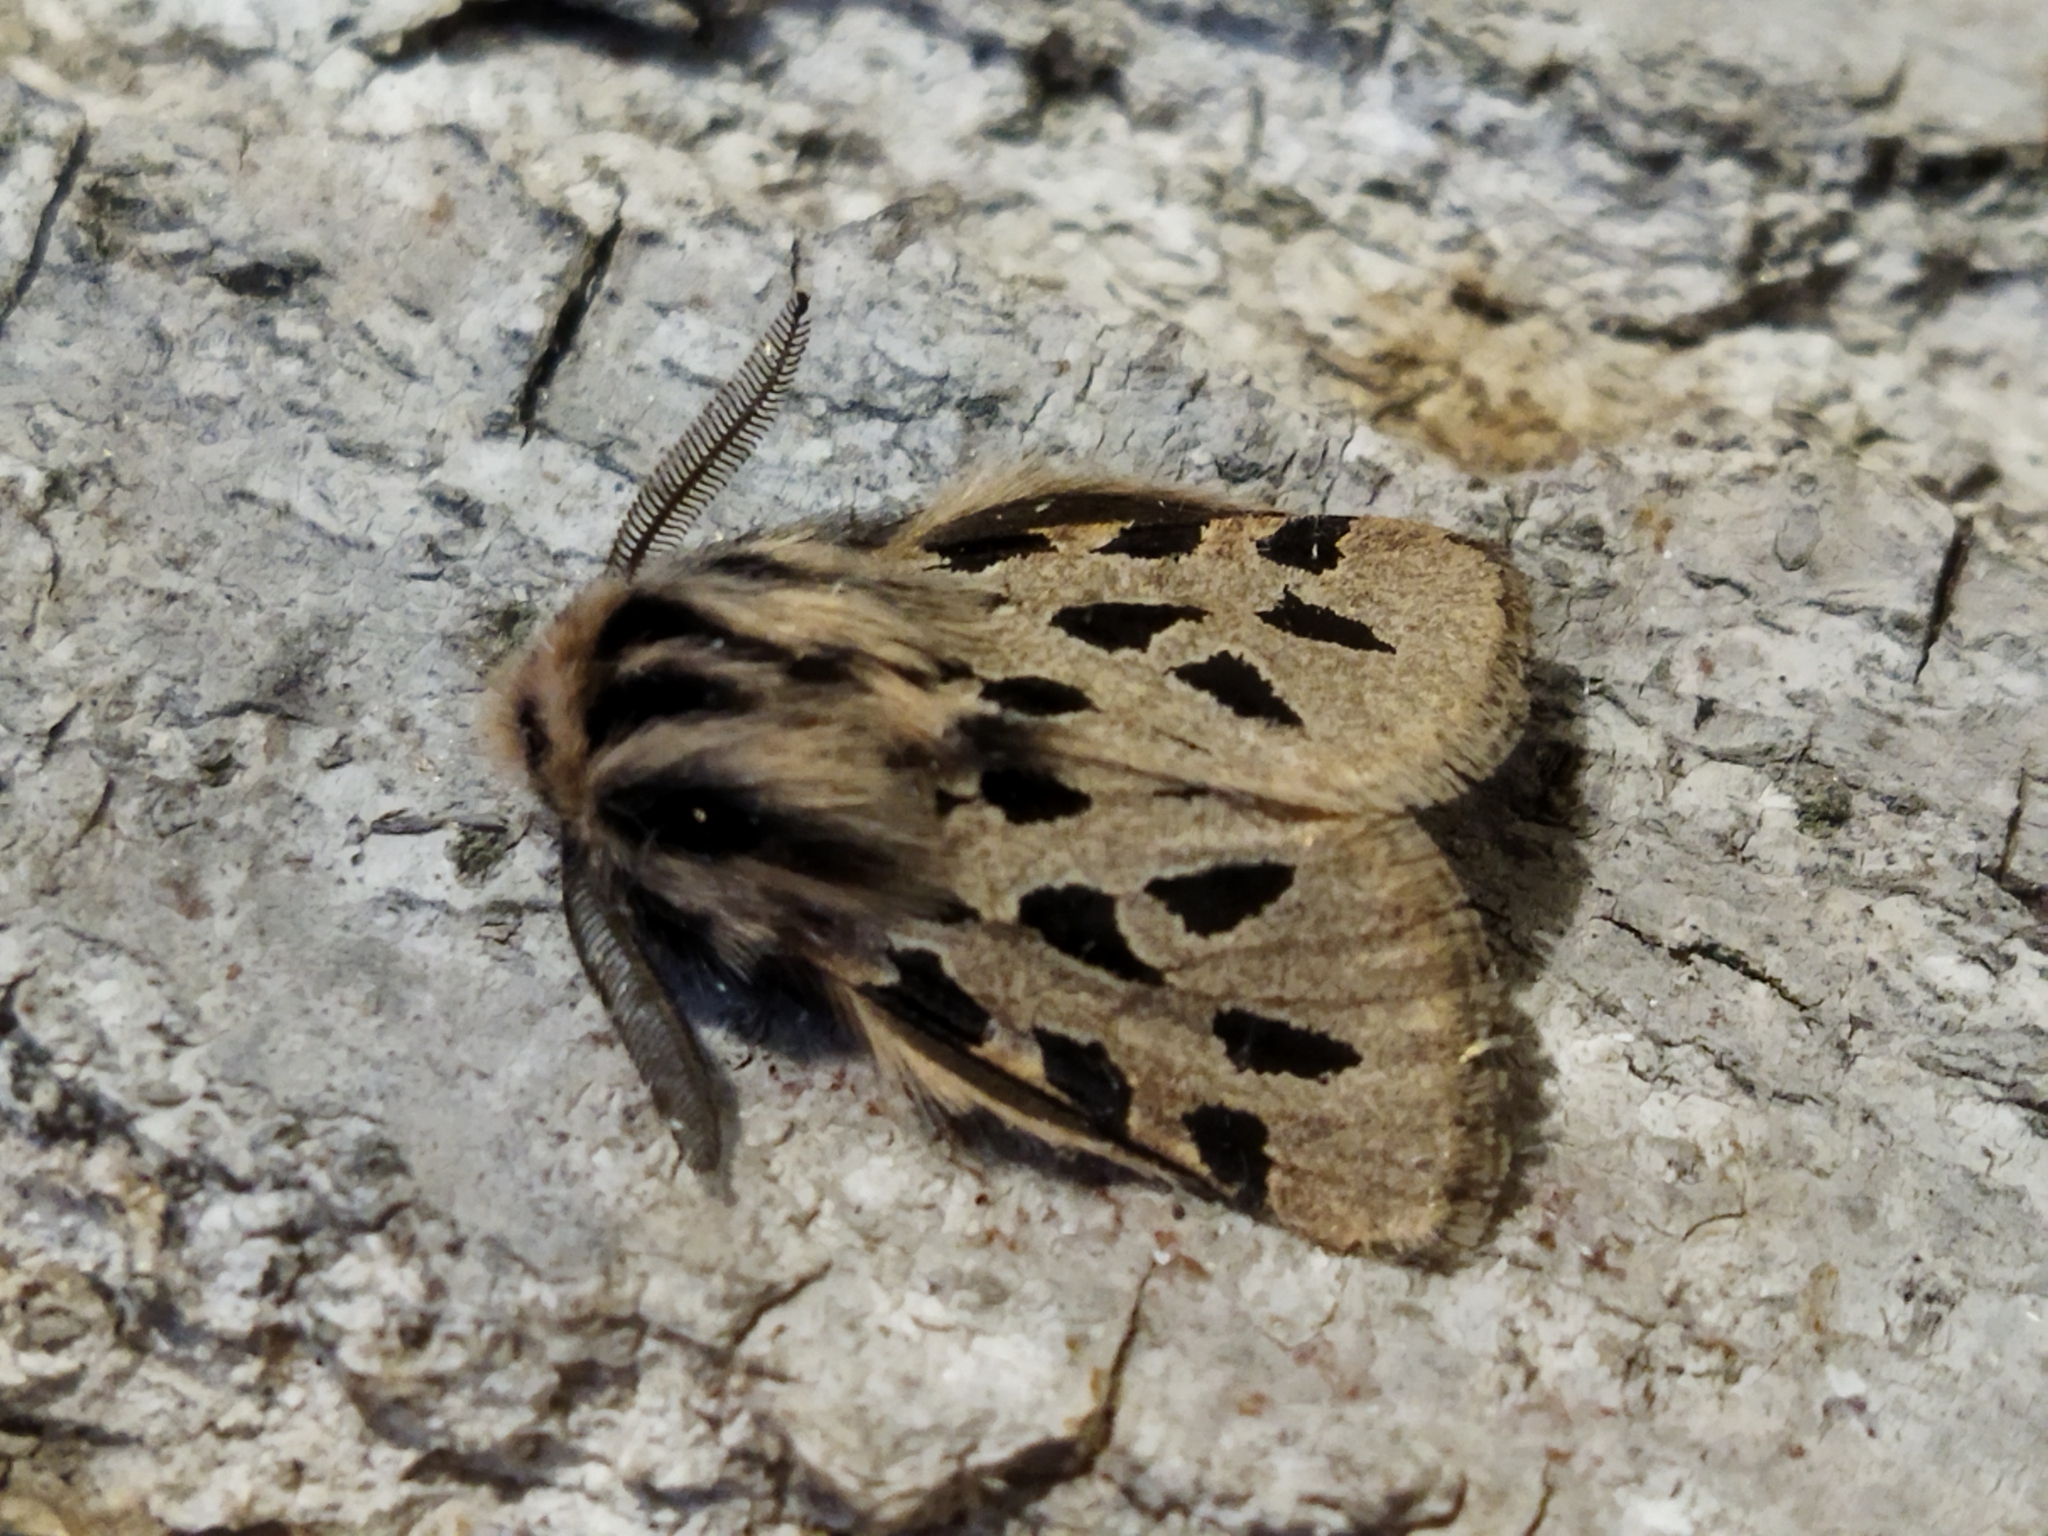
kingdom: Animalia
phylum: Arthropoda
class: Insecta
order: Lepidoptera
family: Erebidae
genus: Ocnogyna
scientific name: Ocnogyna parasita
